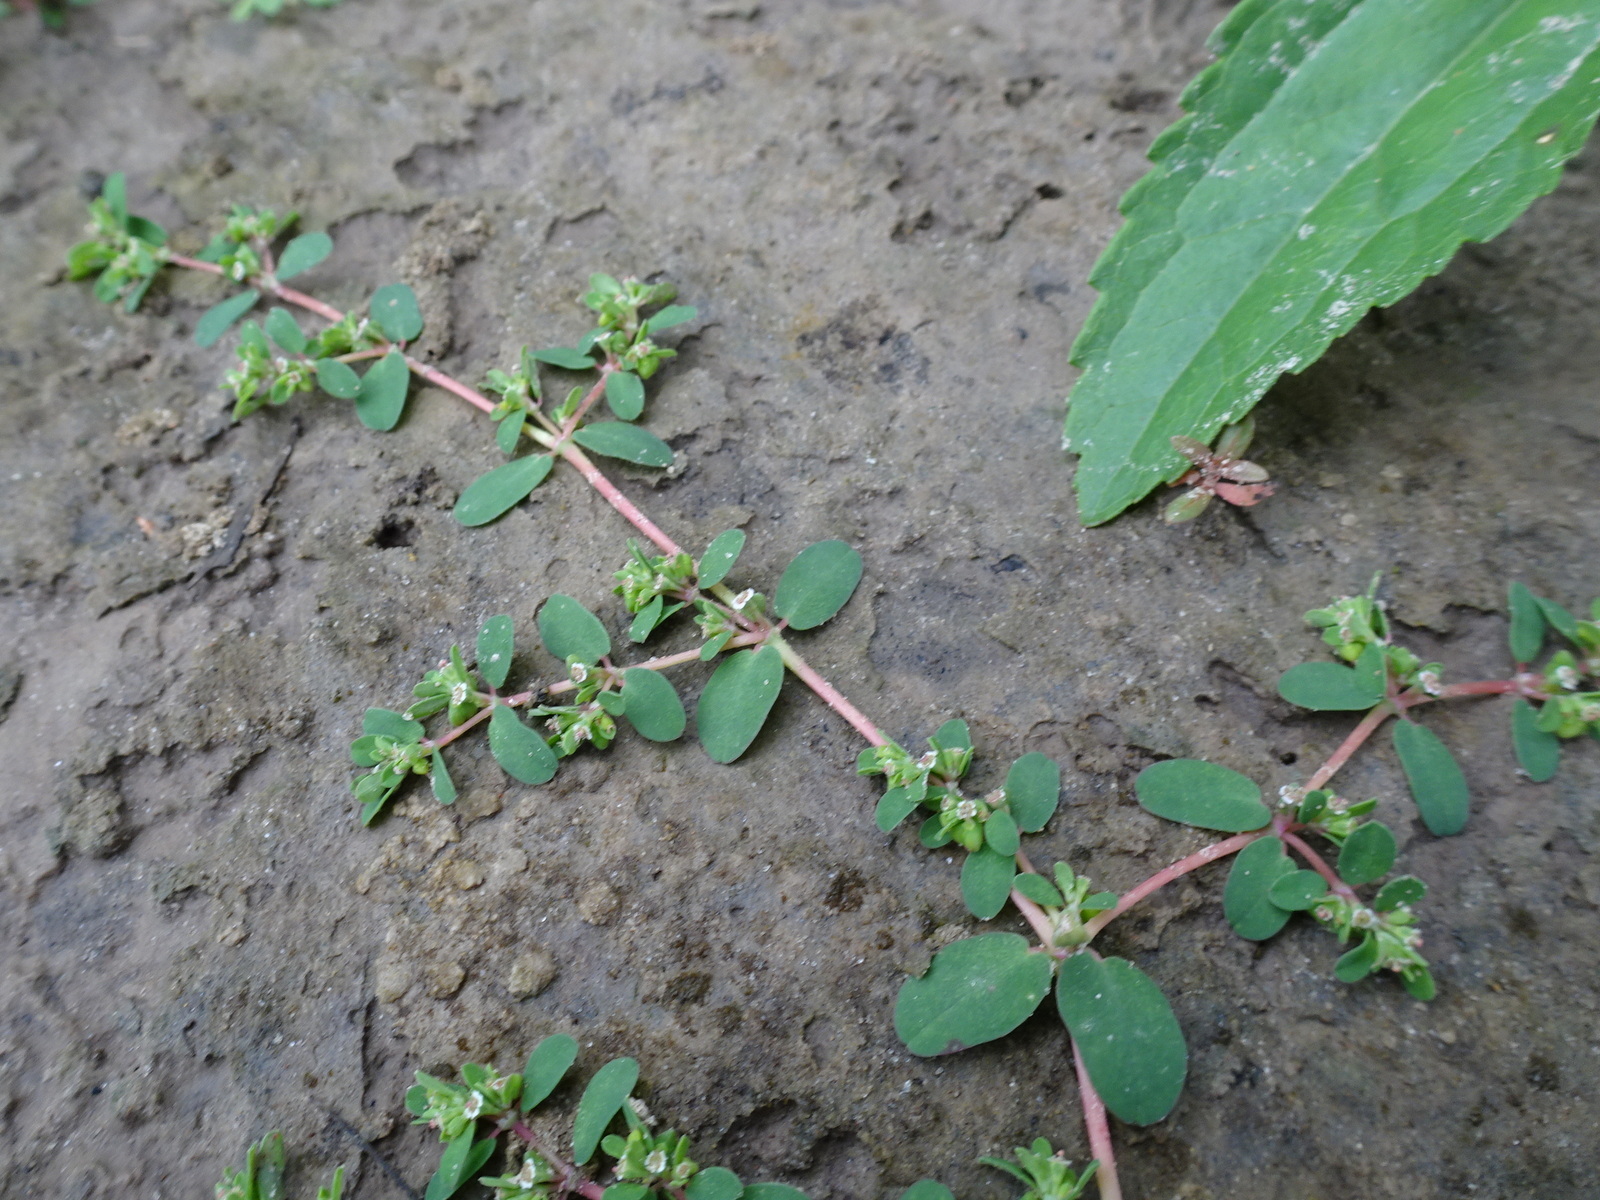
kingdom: Plantae
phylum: Tracheophyta
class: Magnoliopsida
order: Malpighiales
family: Euphorbiaceae
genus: Euphorbia
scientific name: Euphorbia serpens
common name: Matted sandmat
